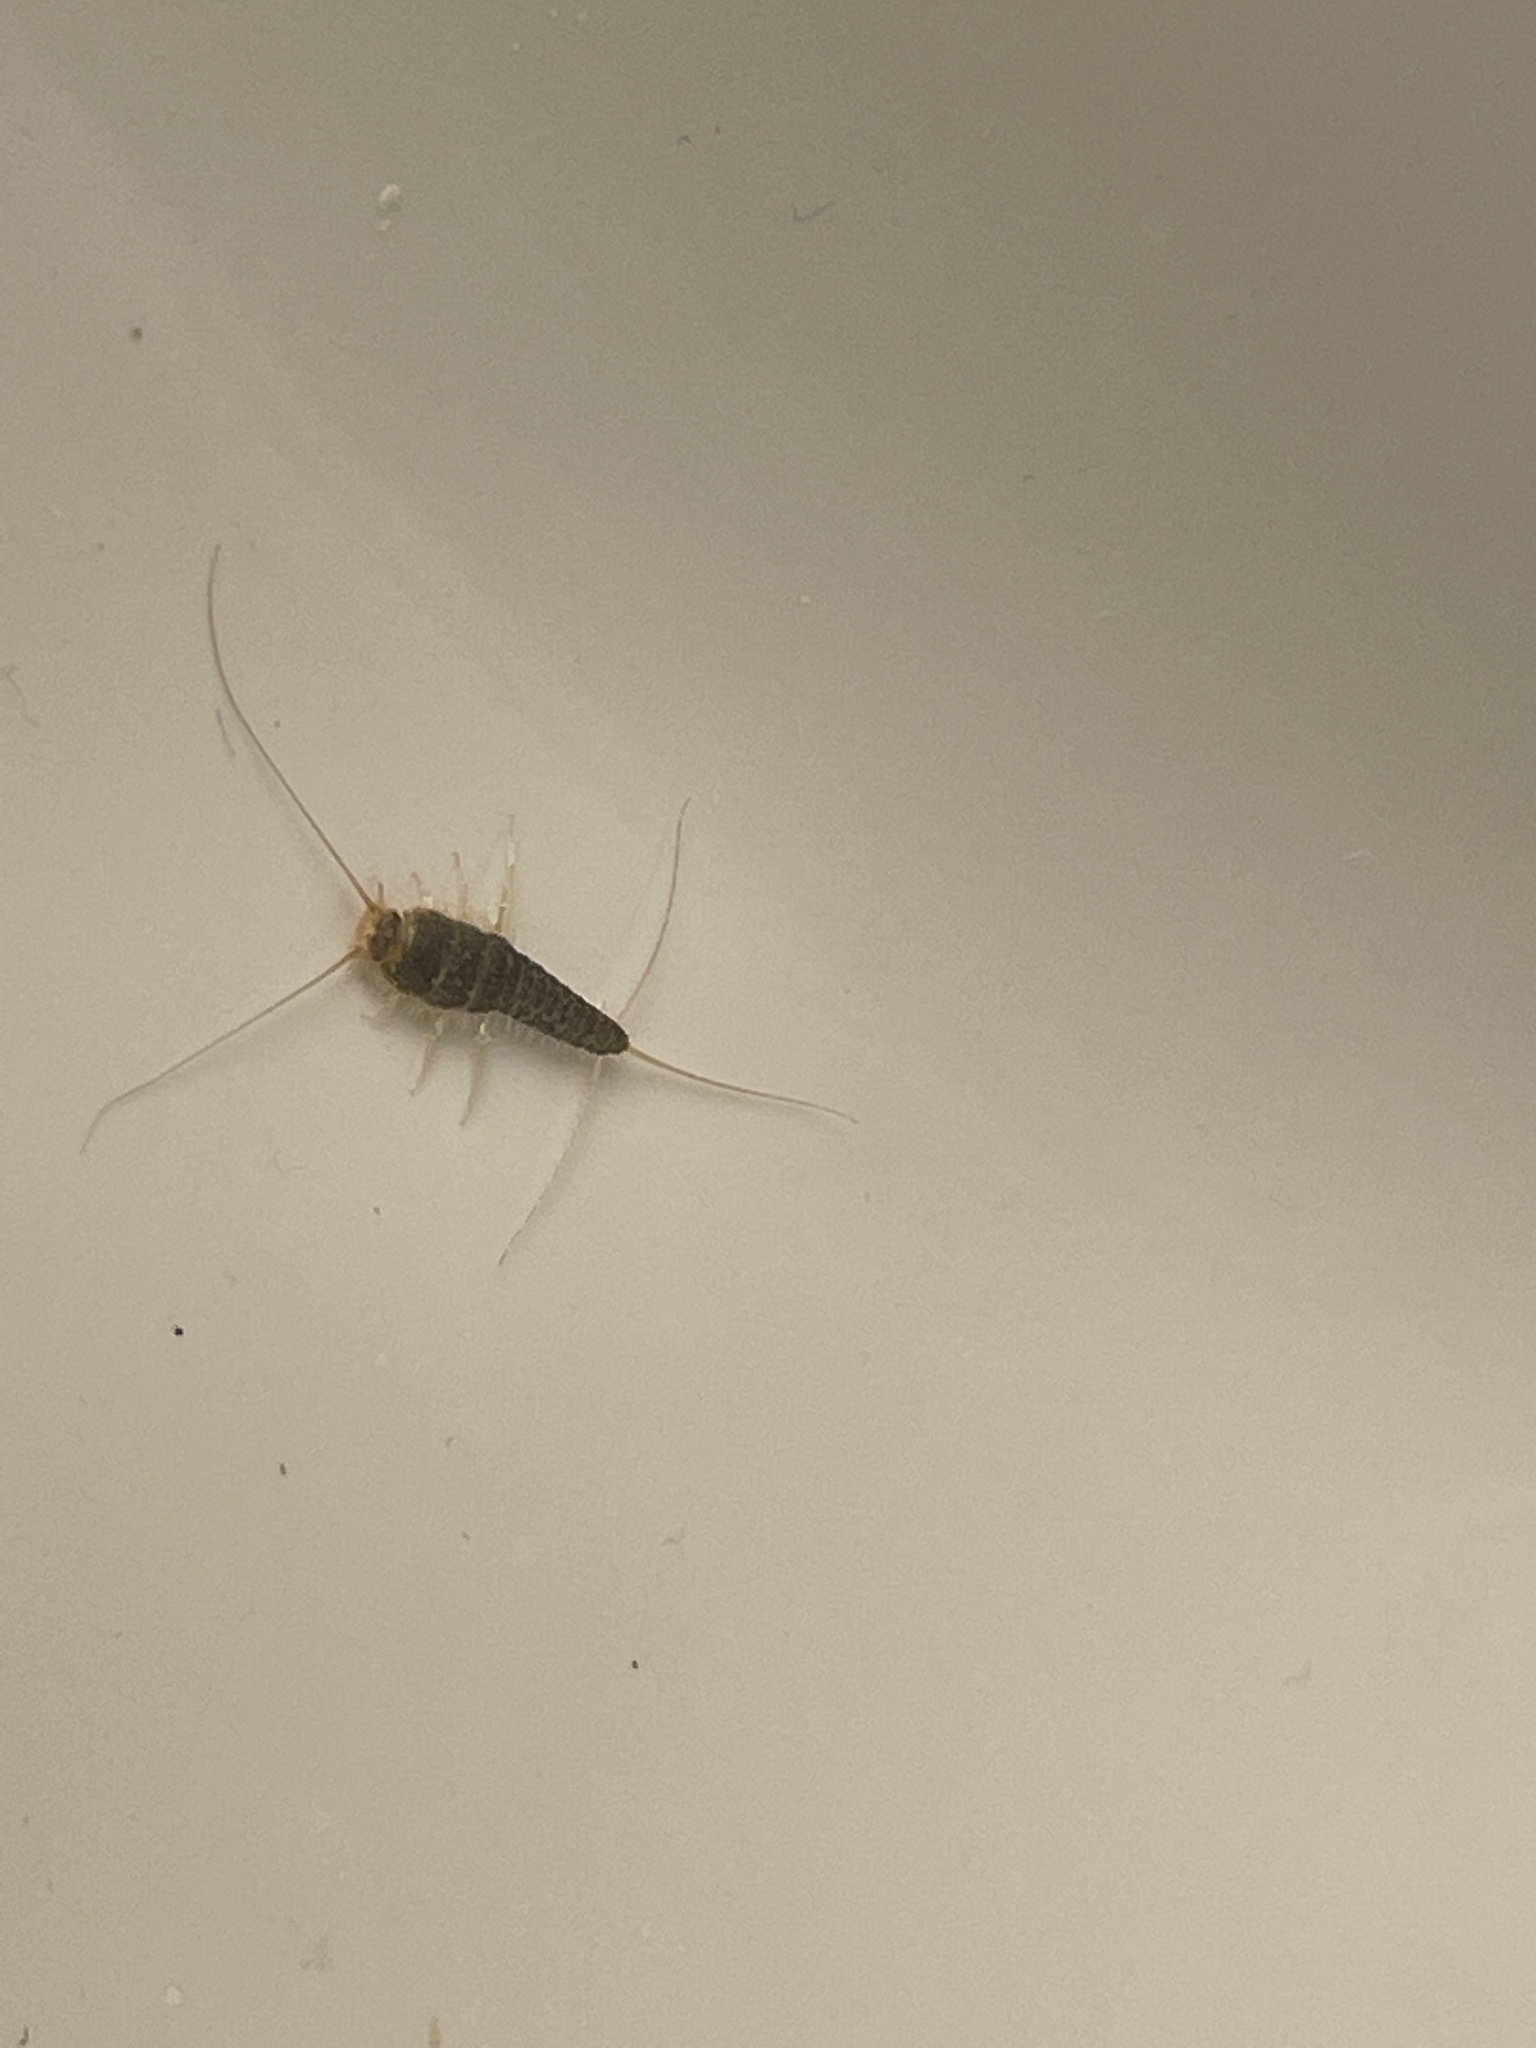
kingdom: Animalia
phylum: Arthropoda
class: Insecta
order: Zygentoma
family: Lepismatidae
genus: Ctenolepisma
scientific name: Ctenolepisma longicaudatum
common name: Silverfish
